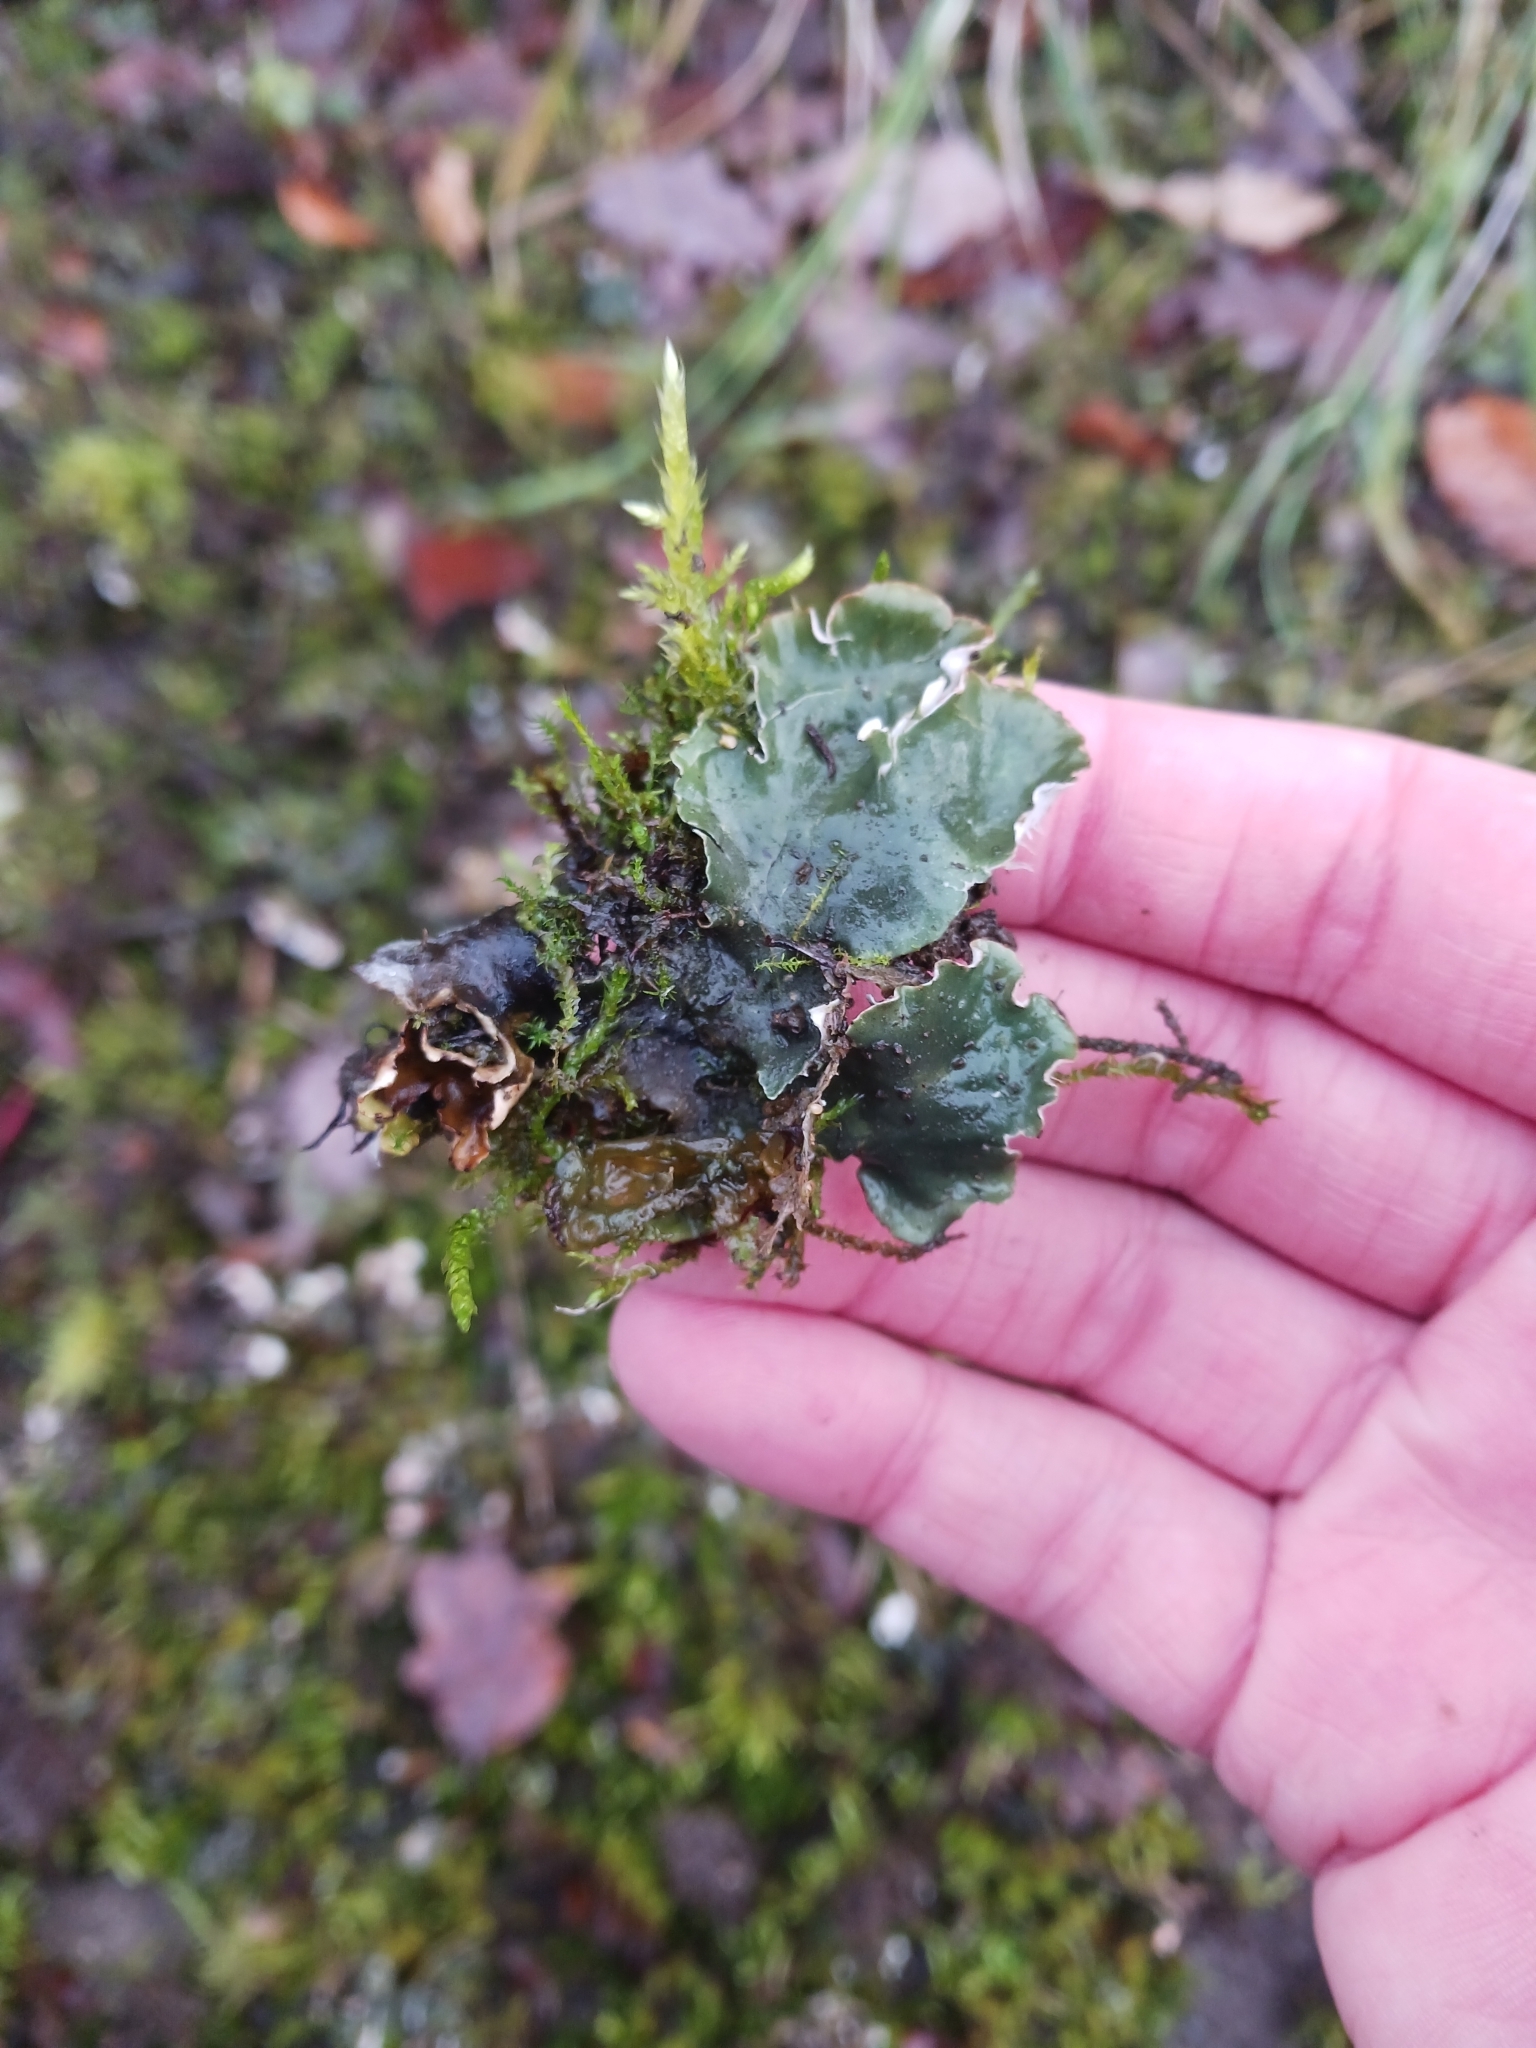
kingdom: Fungi
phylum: Ascomycota
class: Lecanoromycetes
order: Peltigerales
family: Peltigeraceae
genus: Peltigera
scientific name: Peltigera praetextata
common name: Scaly dog-lichen
